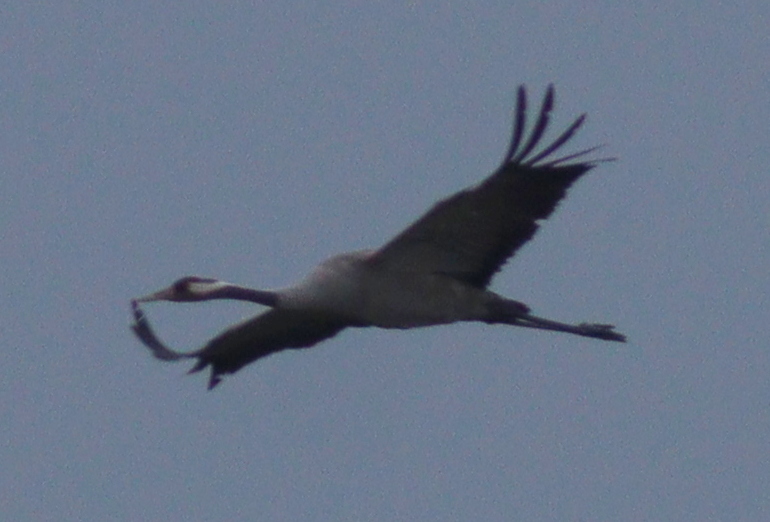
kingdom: Animalia
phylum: Chordata
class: Aves
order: Gruiformes
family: Gruidae
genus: Grus
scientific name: Grus grus
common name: Common crane
